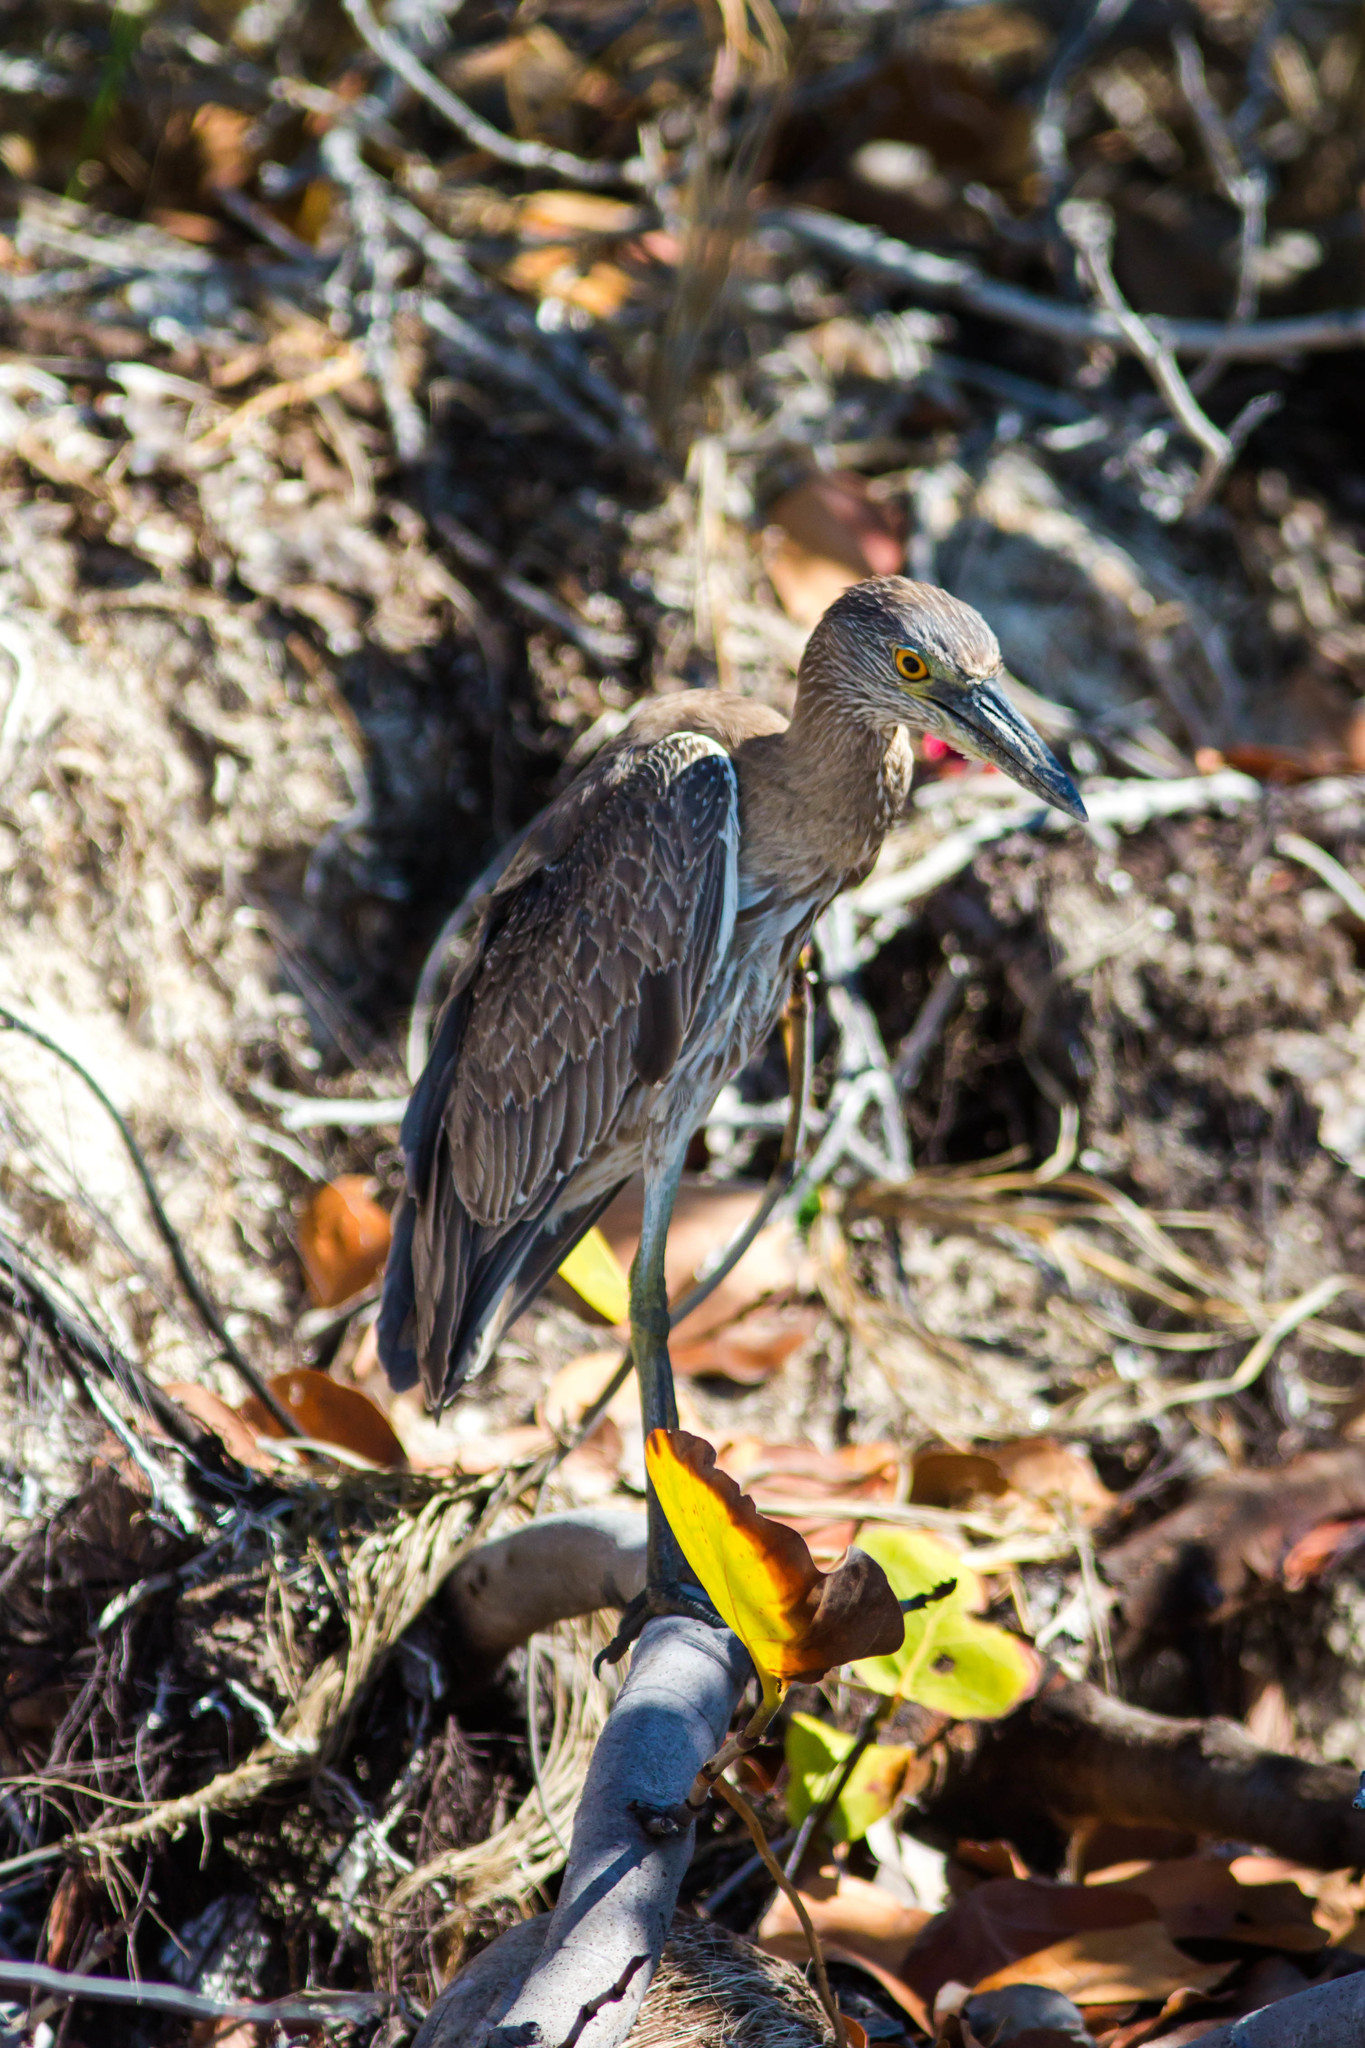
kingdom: Animalia
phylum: Chordata
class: Aves
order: Pelecaniformes
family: Ardeidae
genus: Nyctanassa
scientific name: Nyctanassa violacea
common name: Yellow-crowned night heron
